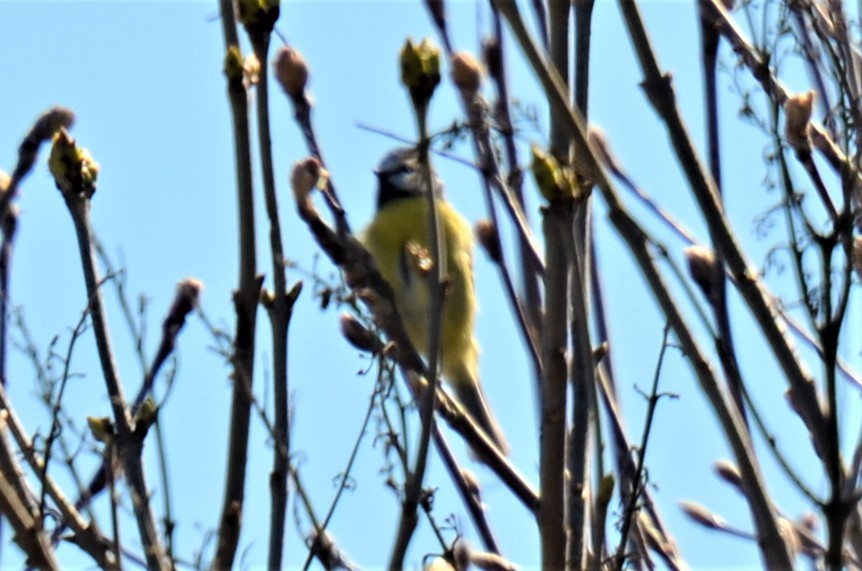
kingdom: Animalia
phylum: Chordata
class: Aves
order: Passeriformes
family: Paridae
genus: Cyanistes
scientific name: Cyanistes caeruleus
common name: Eurasian blue tit
